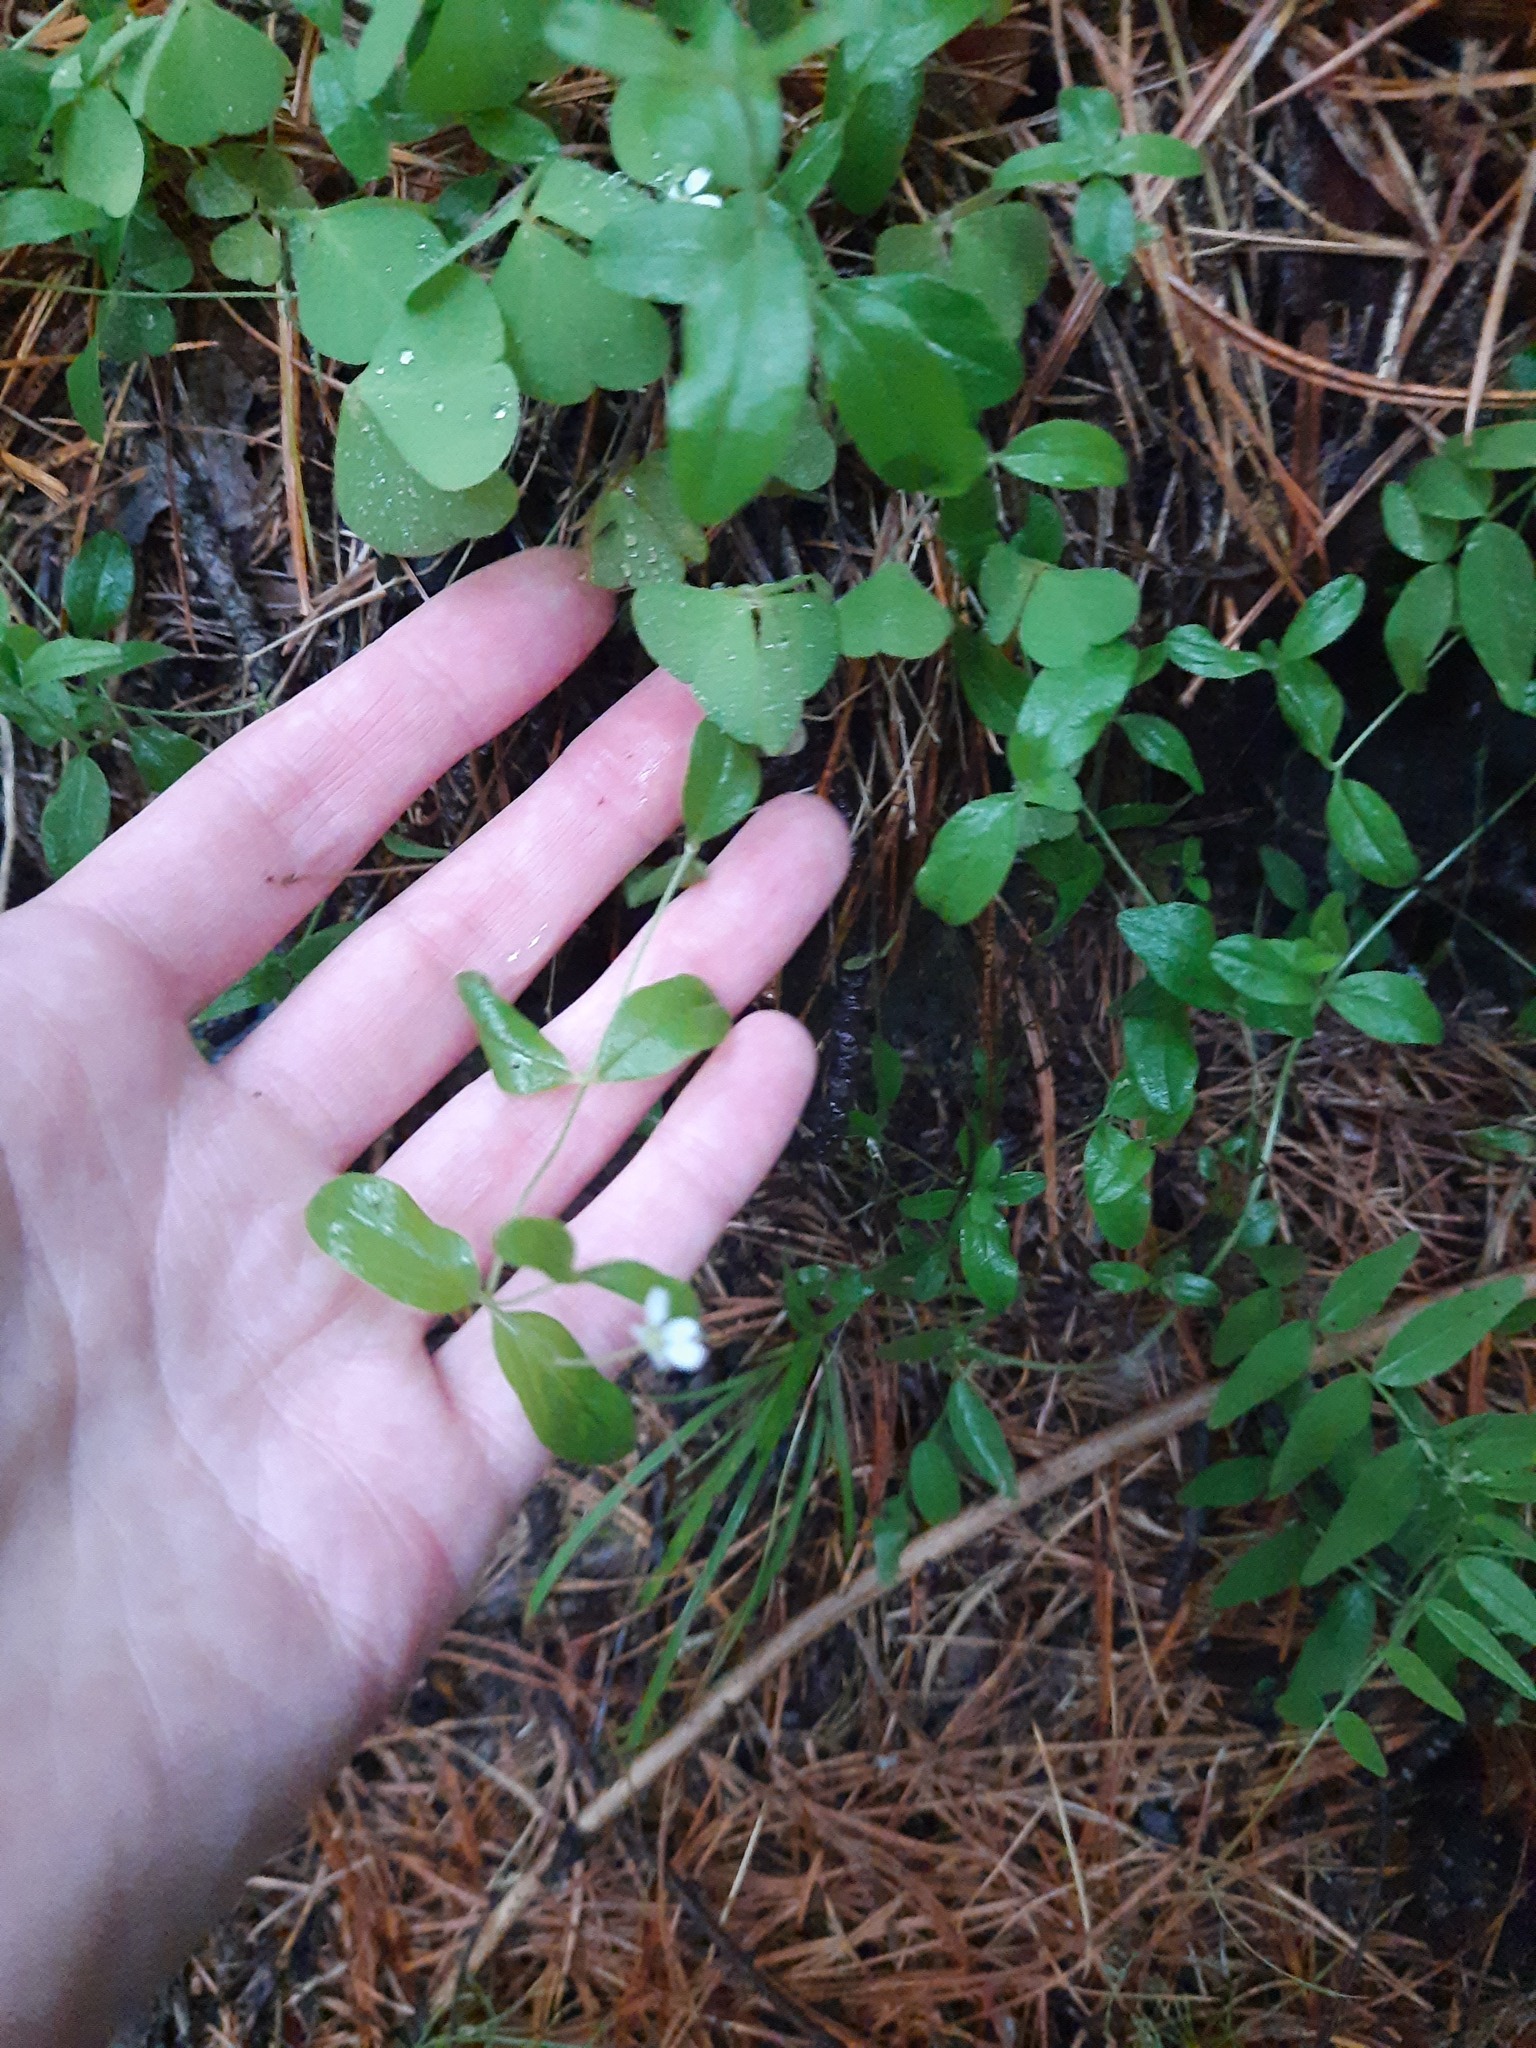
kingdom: Plantae
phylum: Tracheophyta
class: Magnoliopsida
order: Caryophyllales
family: Caryophyllaceae
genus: Moehringia
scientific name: Moehringia lateriflora
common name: Blunt-leaved sandwort
